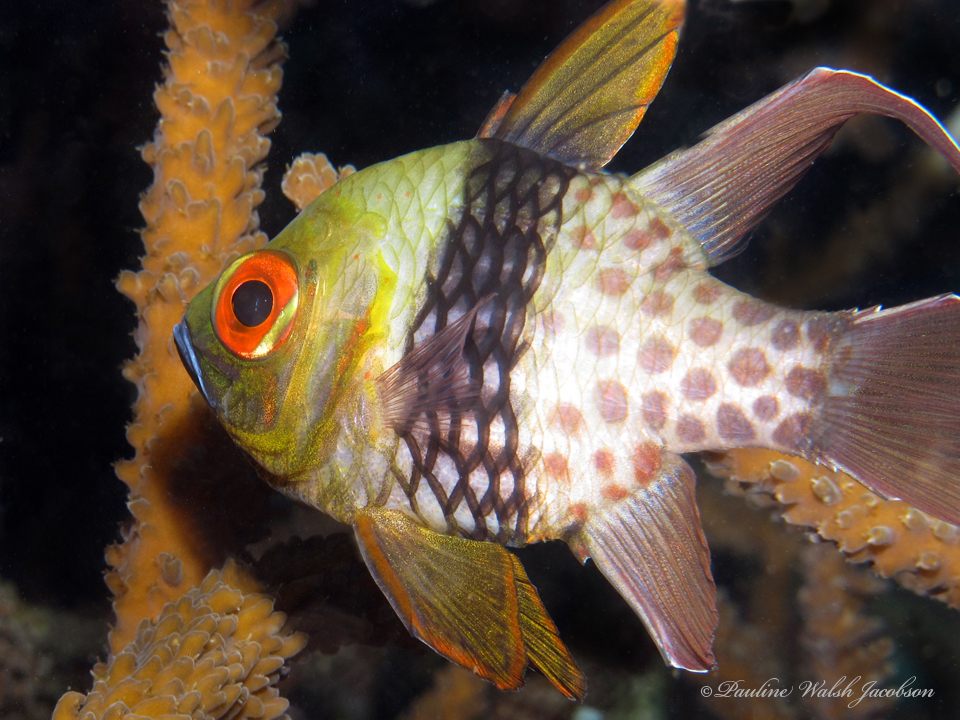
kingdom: Animalia
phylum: Chordata
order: Perciformes
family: Apogonidae
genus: Sphaeramia
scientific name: Sphaeramia nematoptera
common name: Pajama cardinalfish
